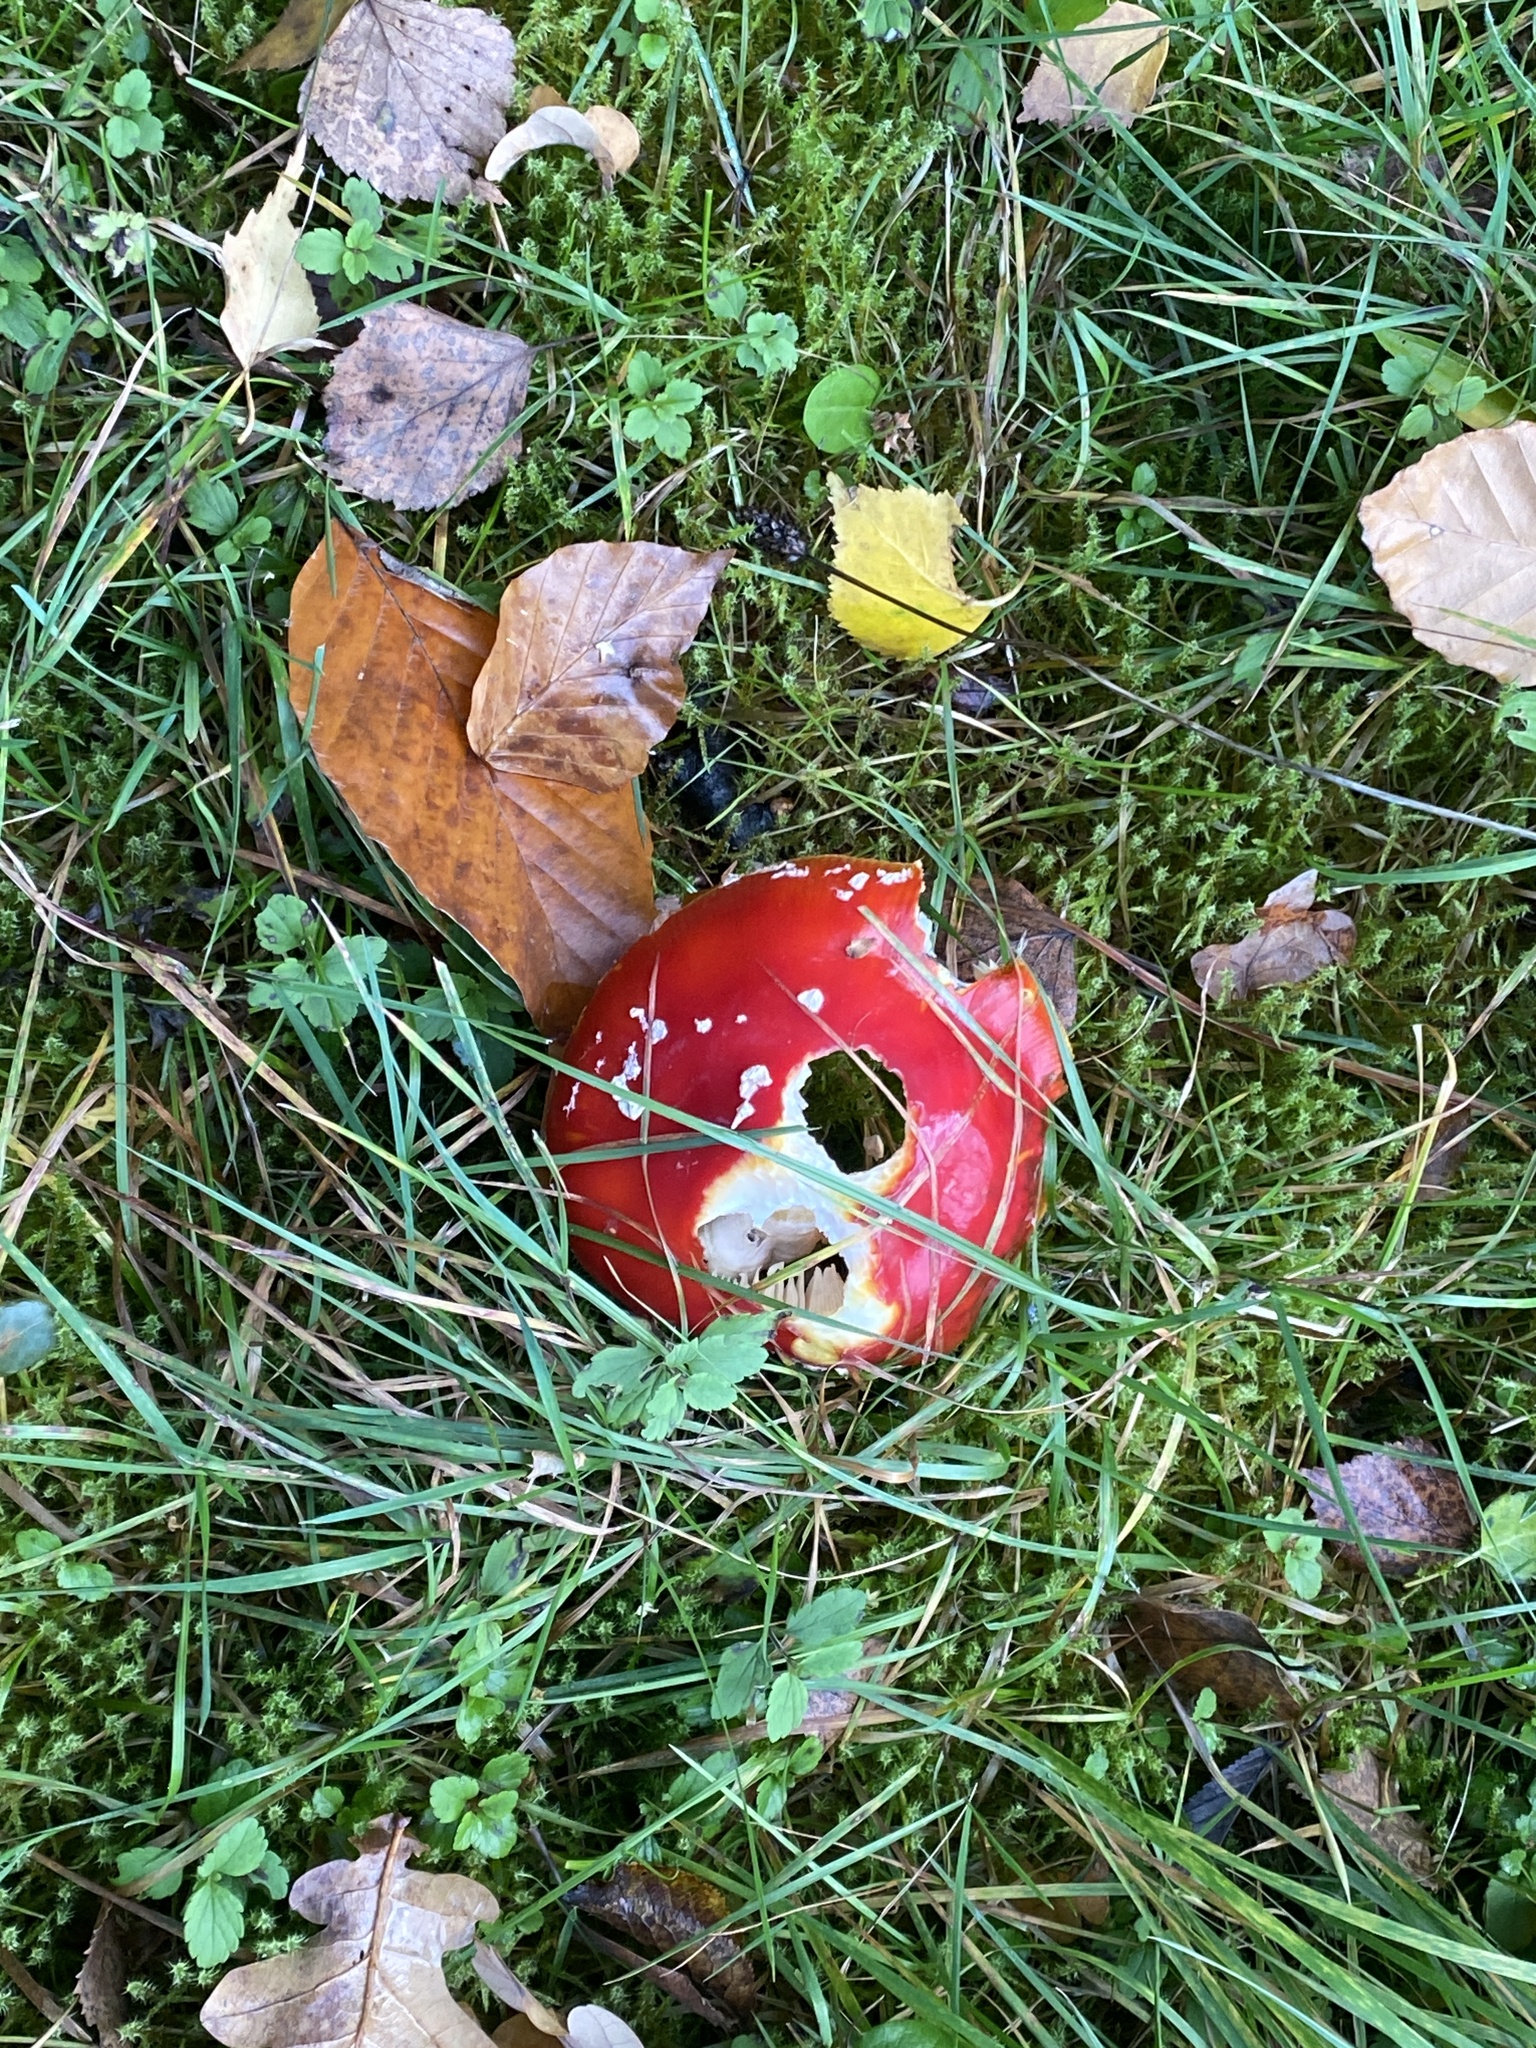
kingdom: Fungi
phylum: Basidiomycota
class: Agaricomycetes
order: Agaricales
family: Amanitaceae
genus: Amanita
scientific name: Amanita muscaria
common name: Fly agaric
